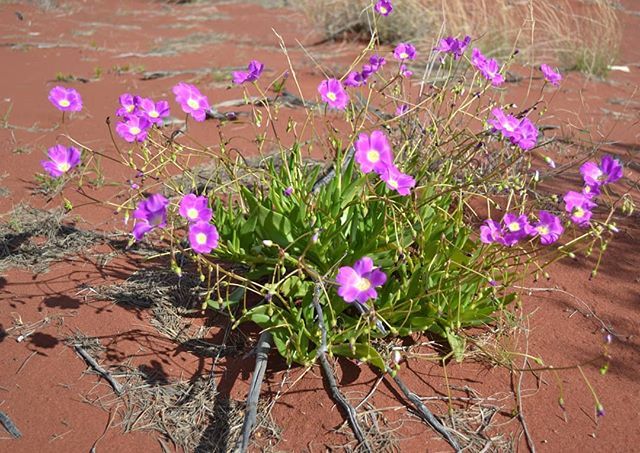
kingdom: Plantae
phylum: Tracheophyta
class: Magnoliopsida
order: Caryophyllales
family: Montiaceae
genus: Rumicastrum
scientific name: Rumicastrum balonense
